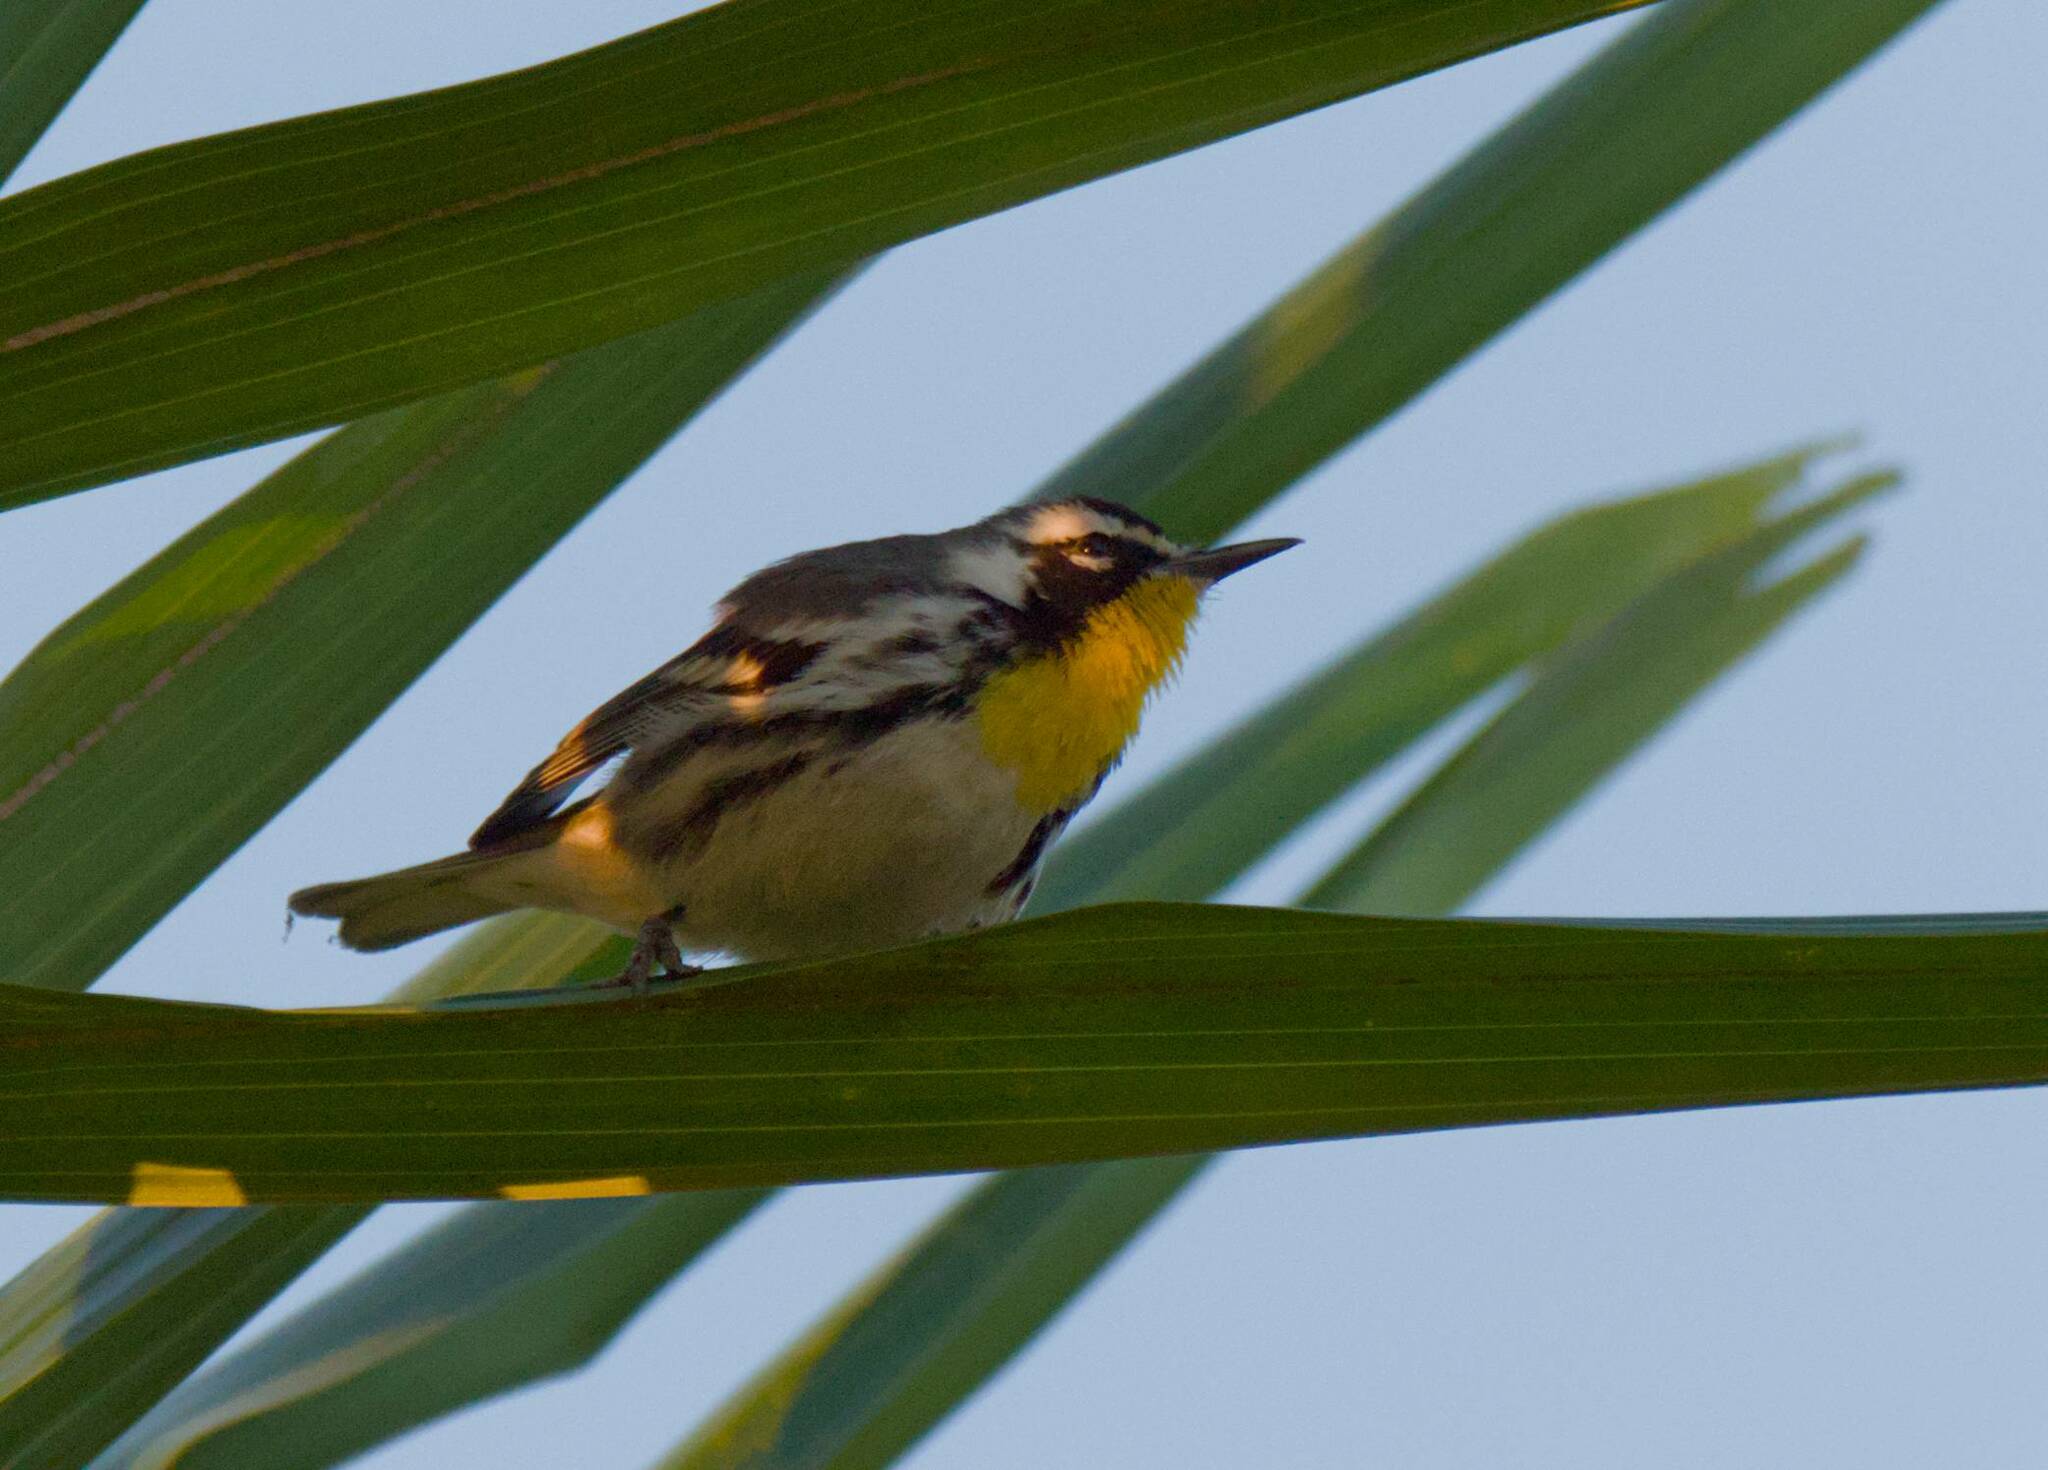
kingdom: Animalia
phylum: Chordata
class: Aves
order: Passeriformes
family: Parulidae
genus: Setophaga
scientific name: Setophaga dominica
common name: Yellow-throated warbler
